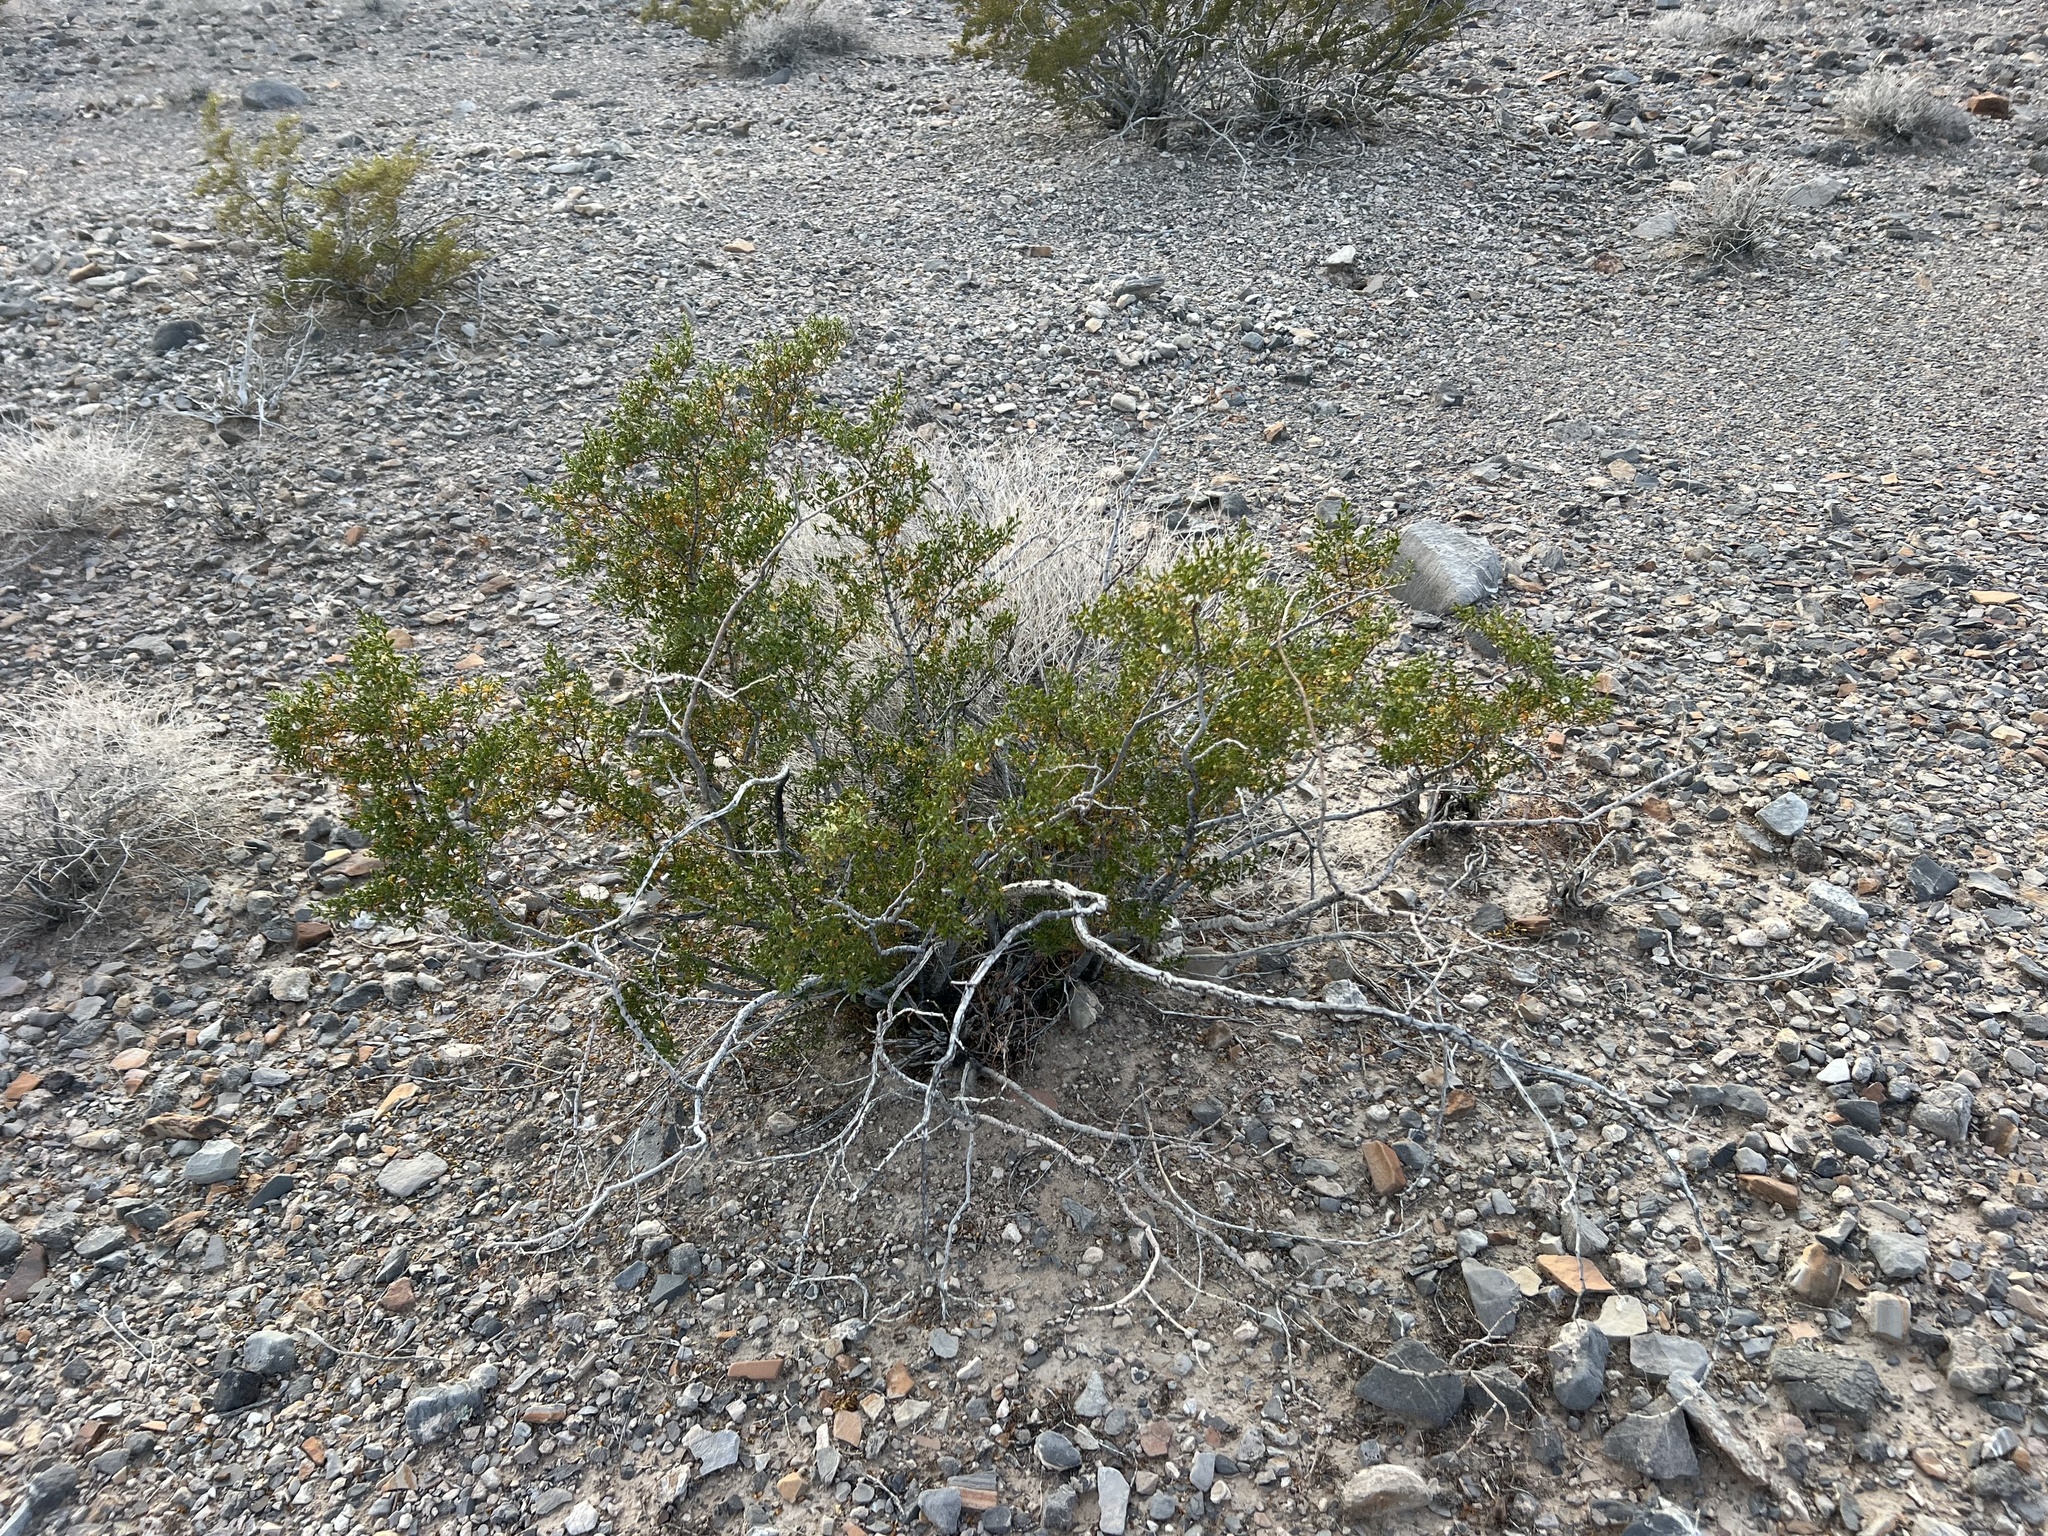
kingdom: Plantae
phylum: Tracheophyta
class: Magnoliopsida
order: Zygophyllales
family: Zygophyllaceae
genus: Larrea
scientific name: Larrea tridentata
